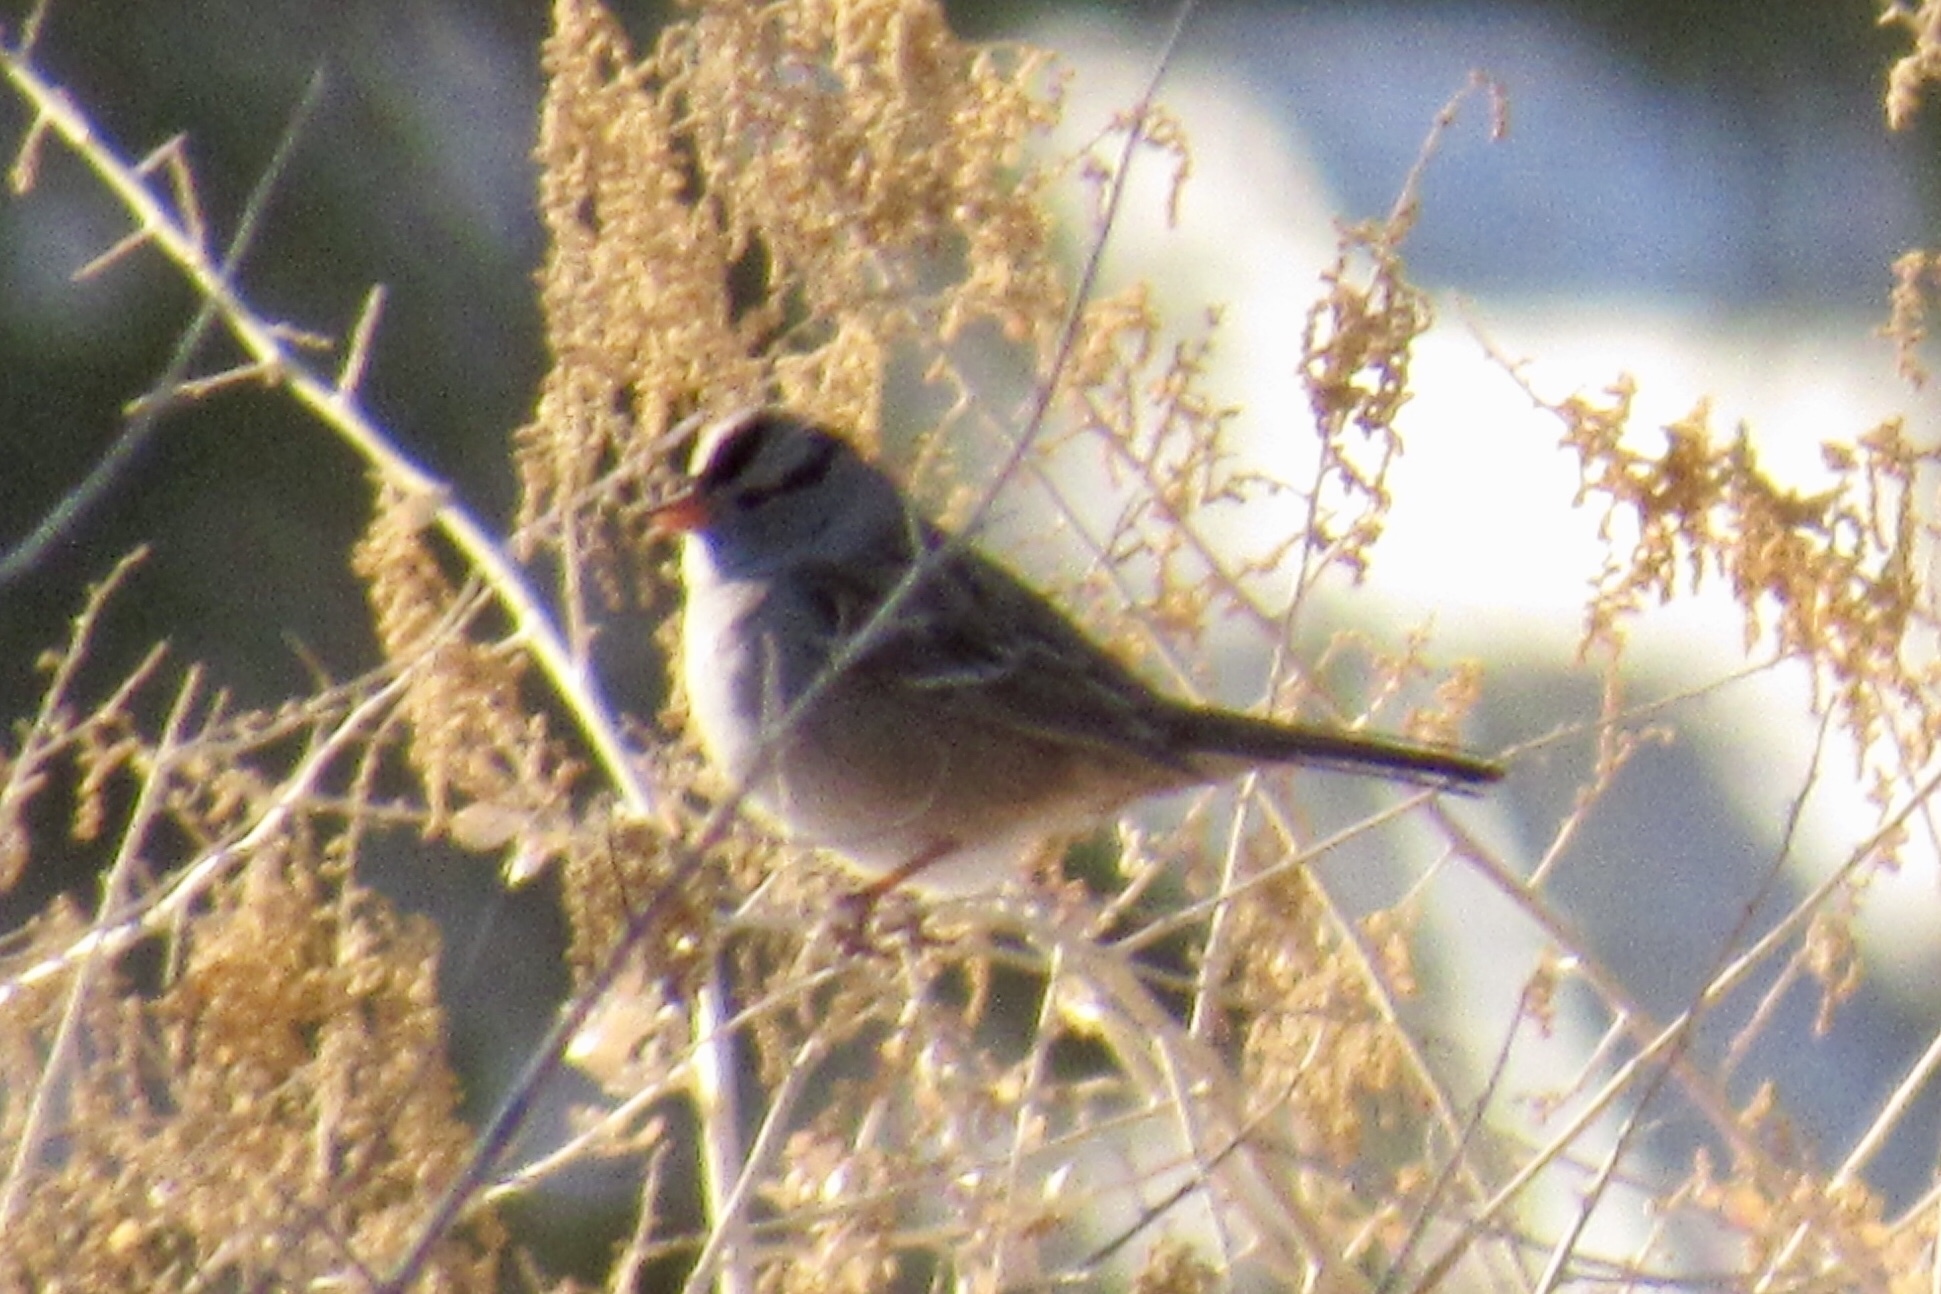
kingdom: Animalia
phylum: Chordata
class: Aves
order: Passeriformes
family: Passerellidae
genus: Zonotrichia
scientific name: Zonotrichia leucophrys
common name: White-crowned sparrow
